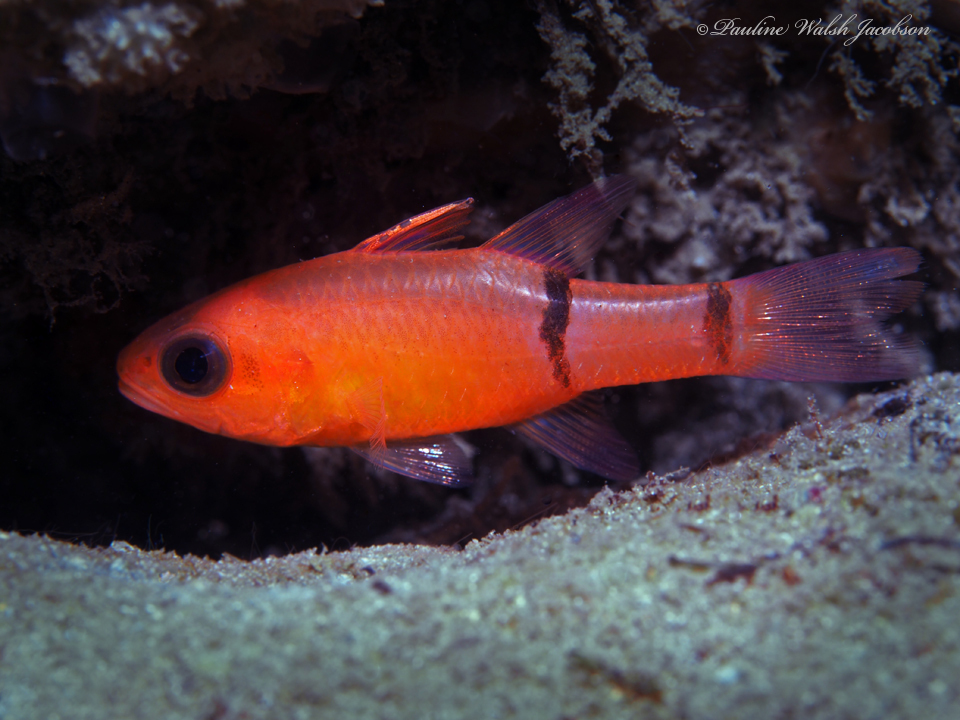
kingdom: Animalia
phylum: Chordata
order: Perciformes
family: Apogonidae
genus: Apogon
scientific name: Apogon binotatus
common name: Barred cardinalfish
